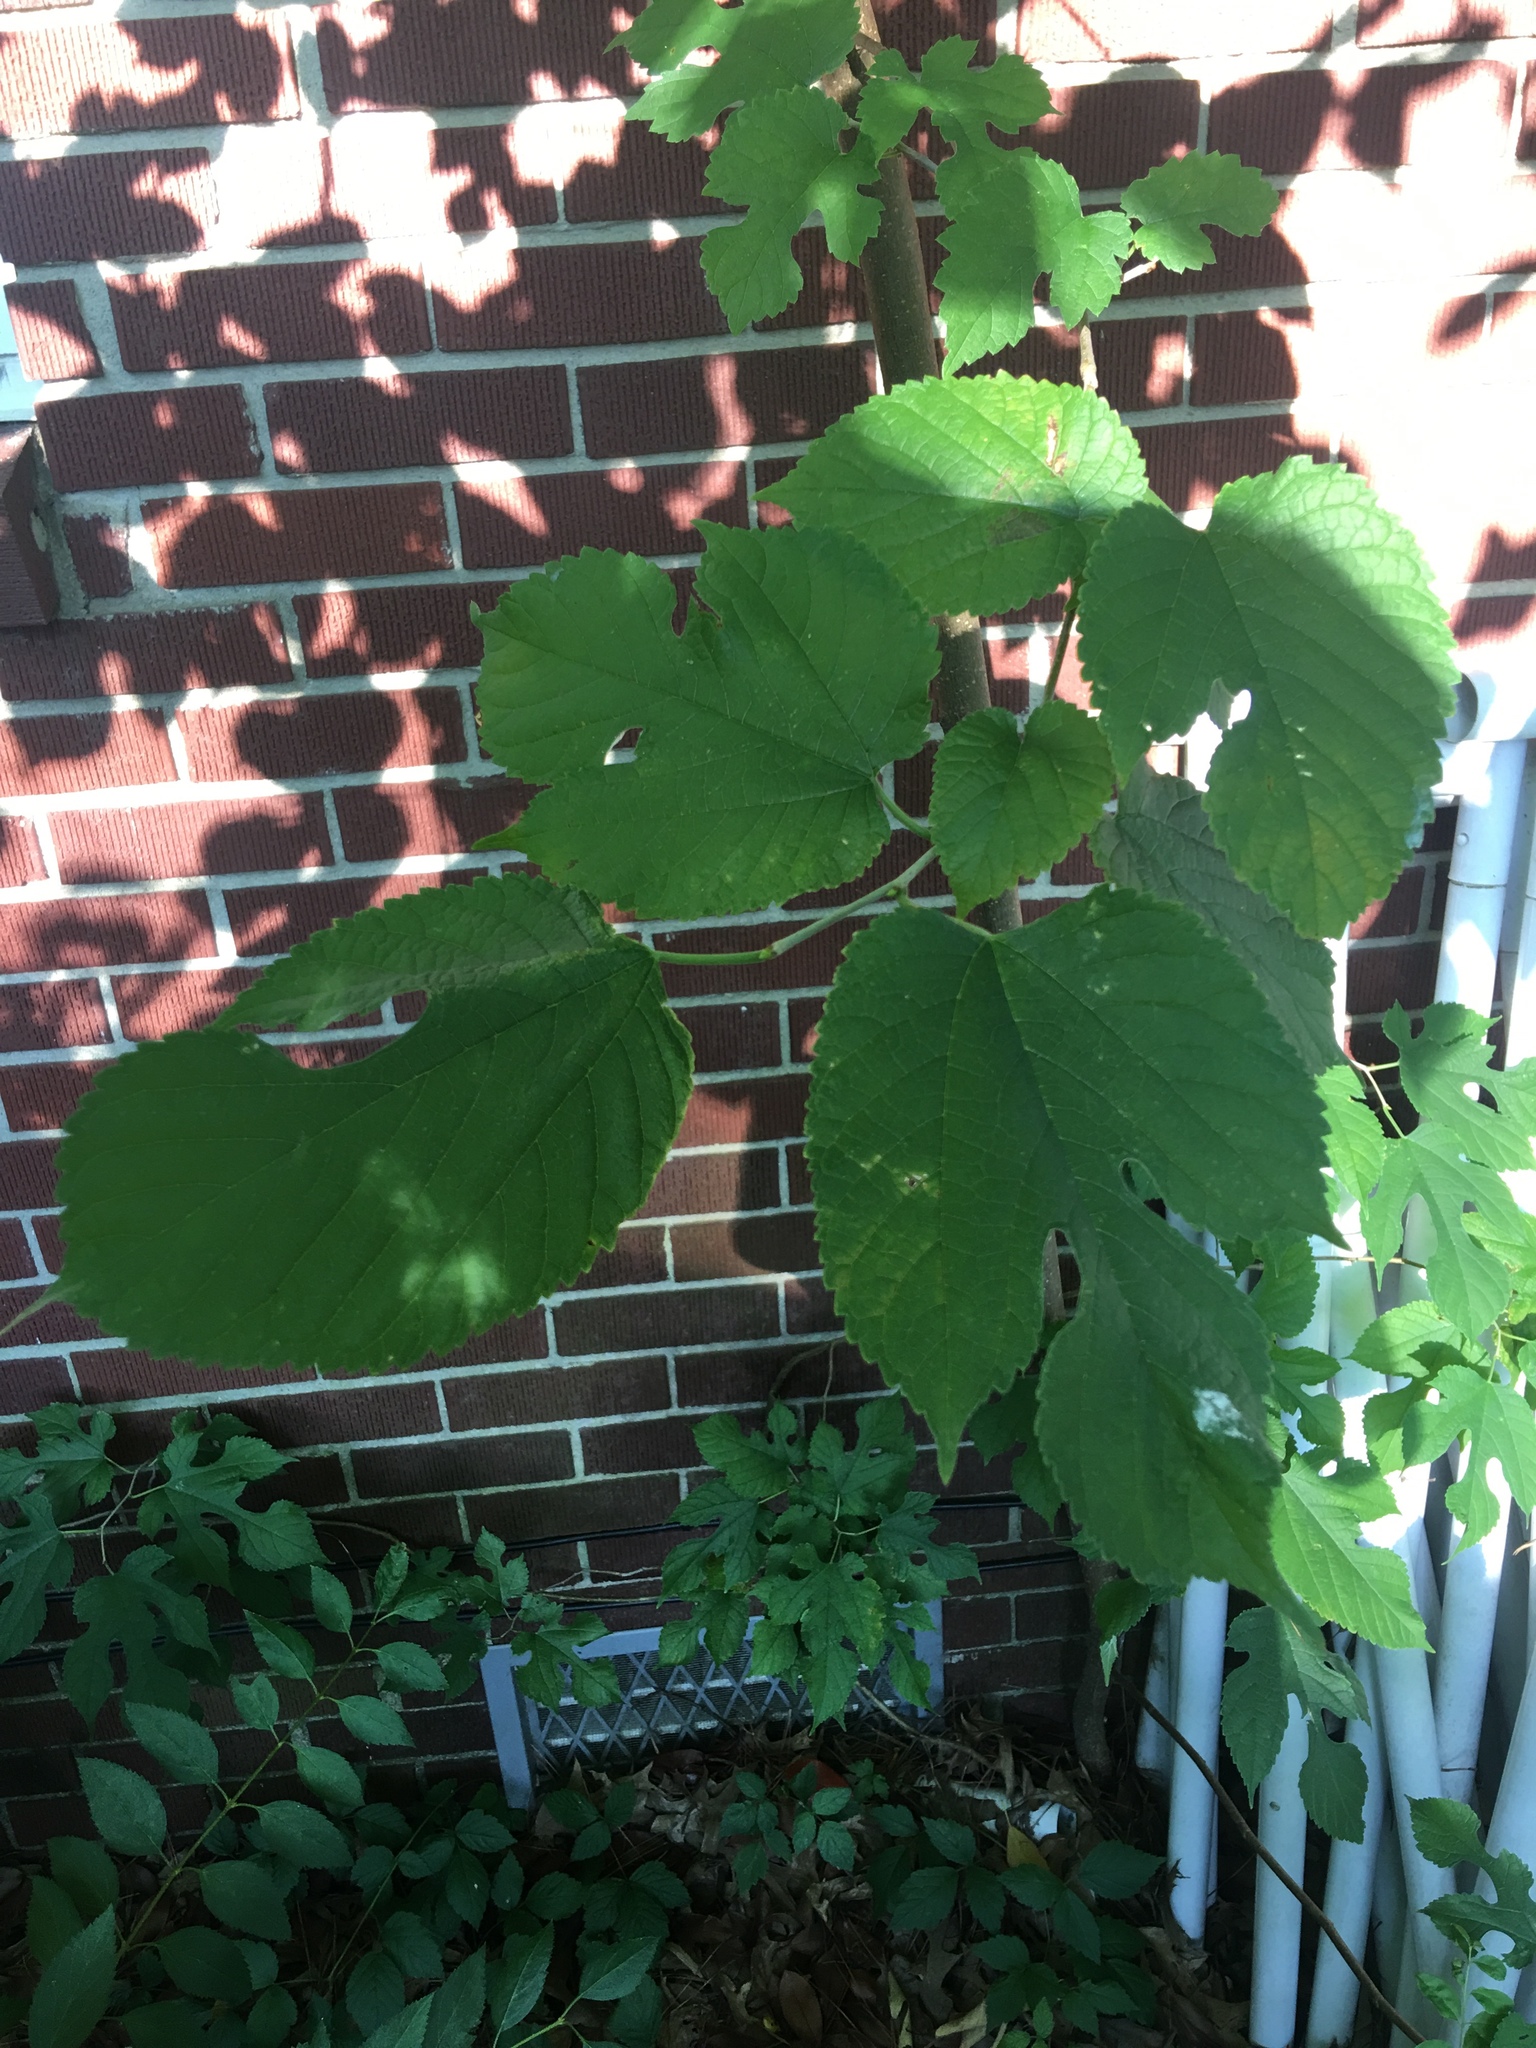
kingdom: Plantae
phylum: Tracheophyta
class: Magnoliopsida
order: Rosales
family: Moraceae
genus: Morus
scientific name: Morus rubra
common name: Red mulberry
